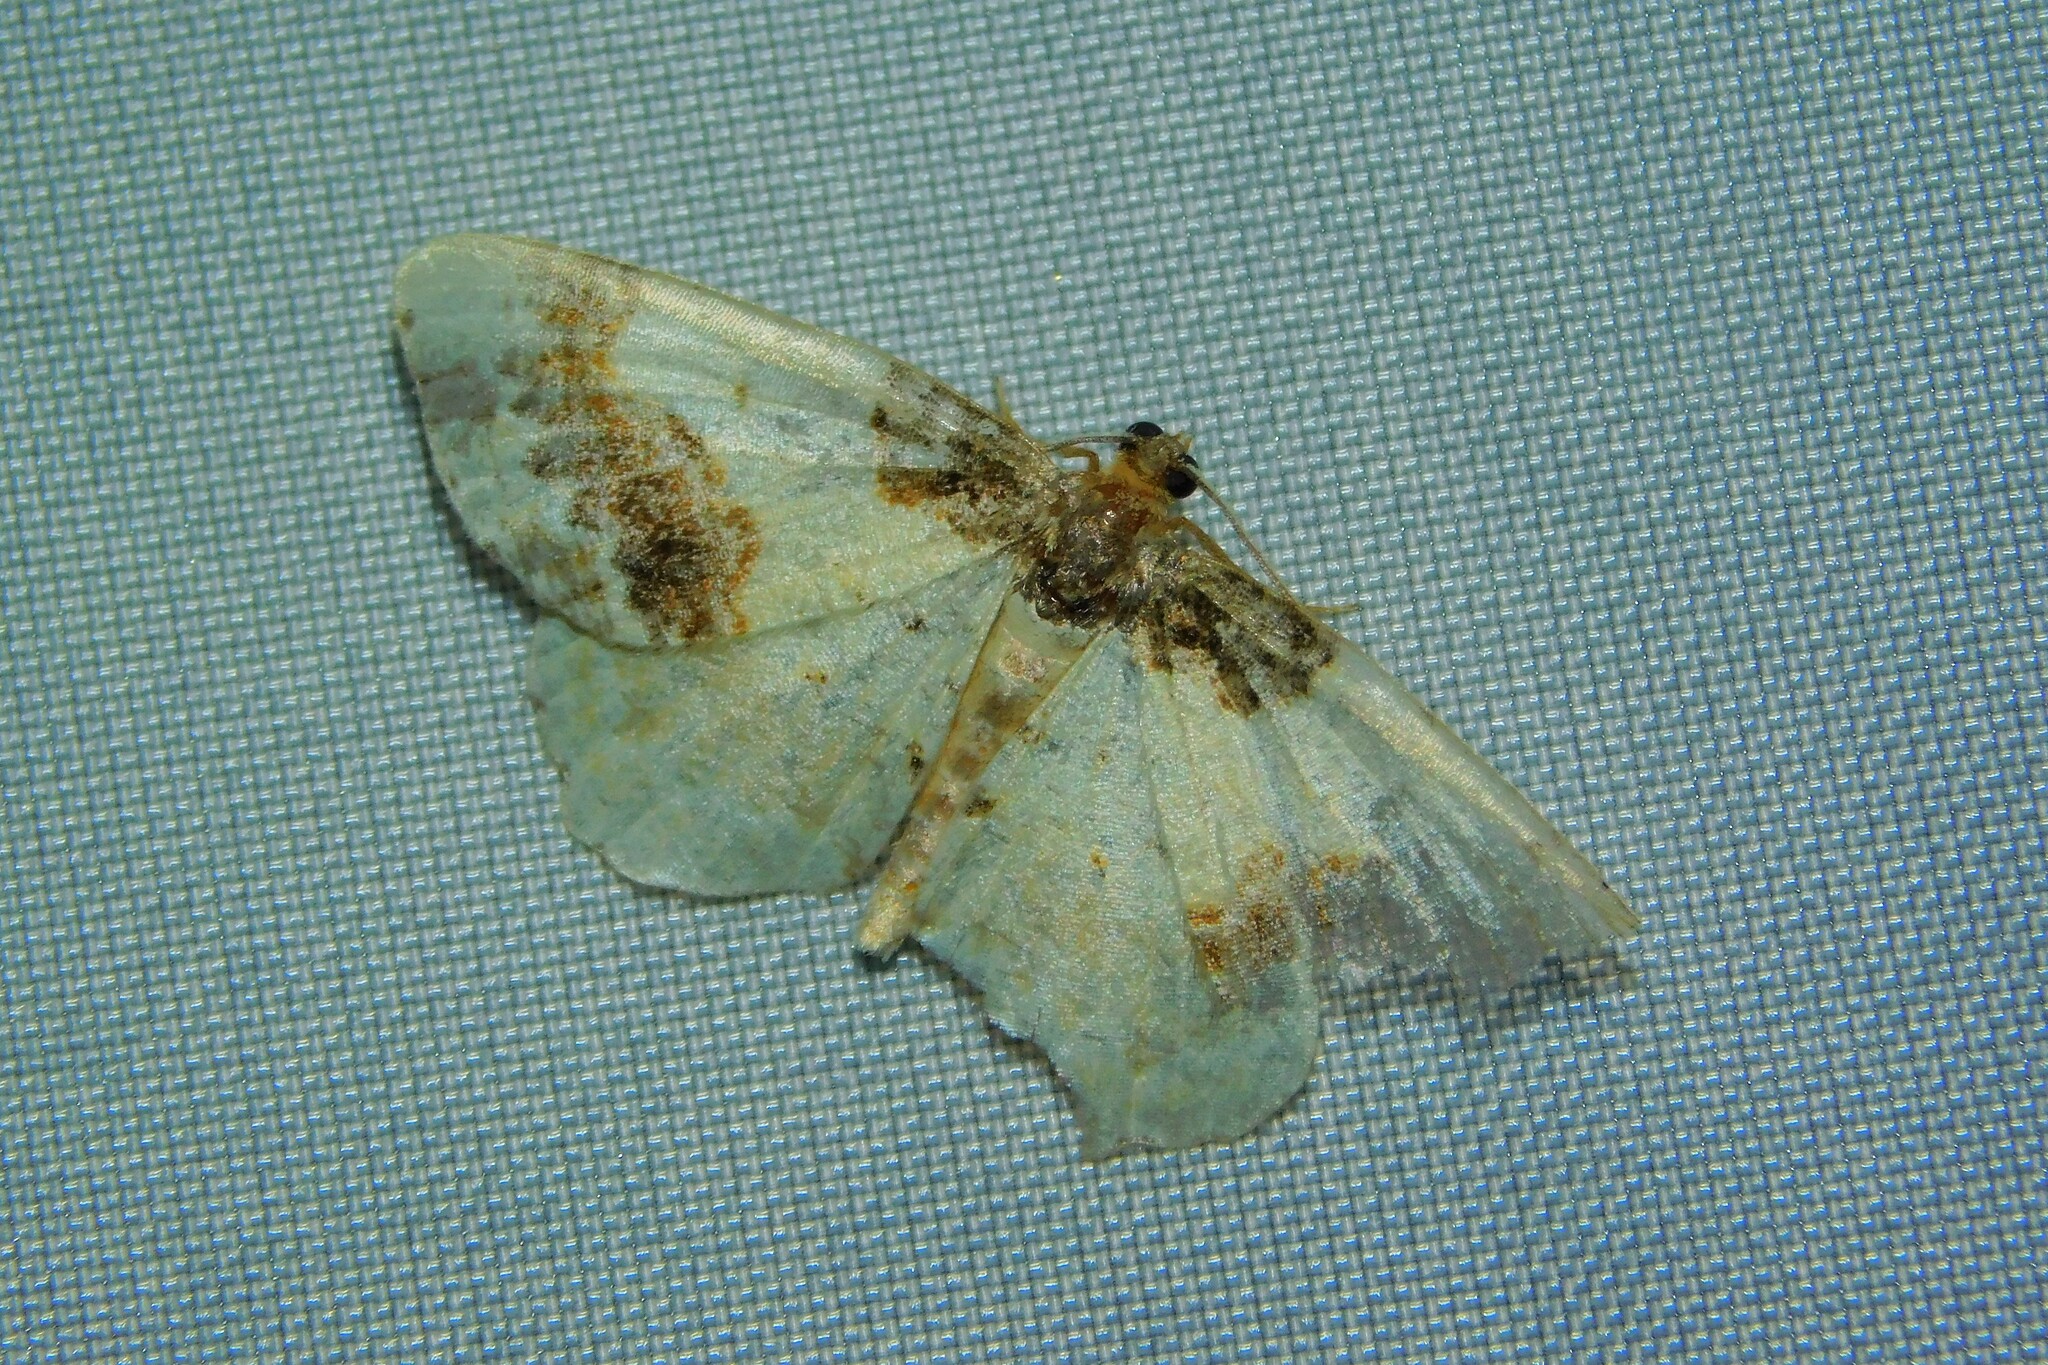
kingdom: Animalia
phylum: Arthropoda
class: Insecta
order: Lepidoptera
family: Geometridae
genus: Ligdia
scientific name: Ligdia adustata
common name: Scorched carpet
